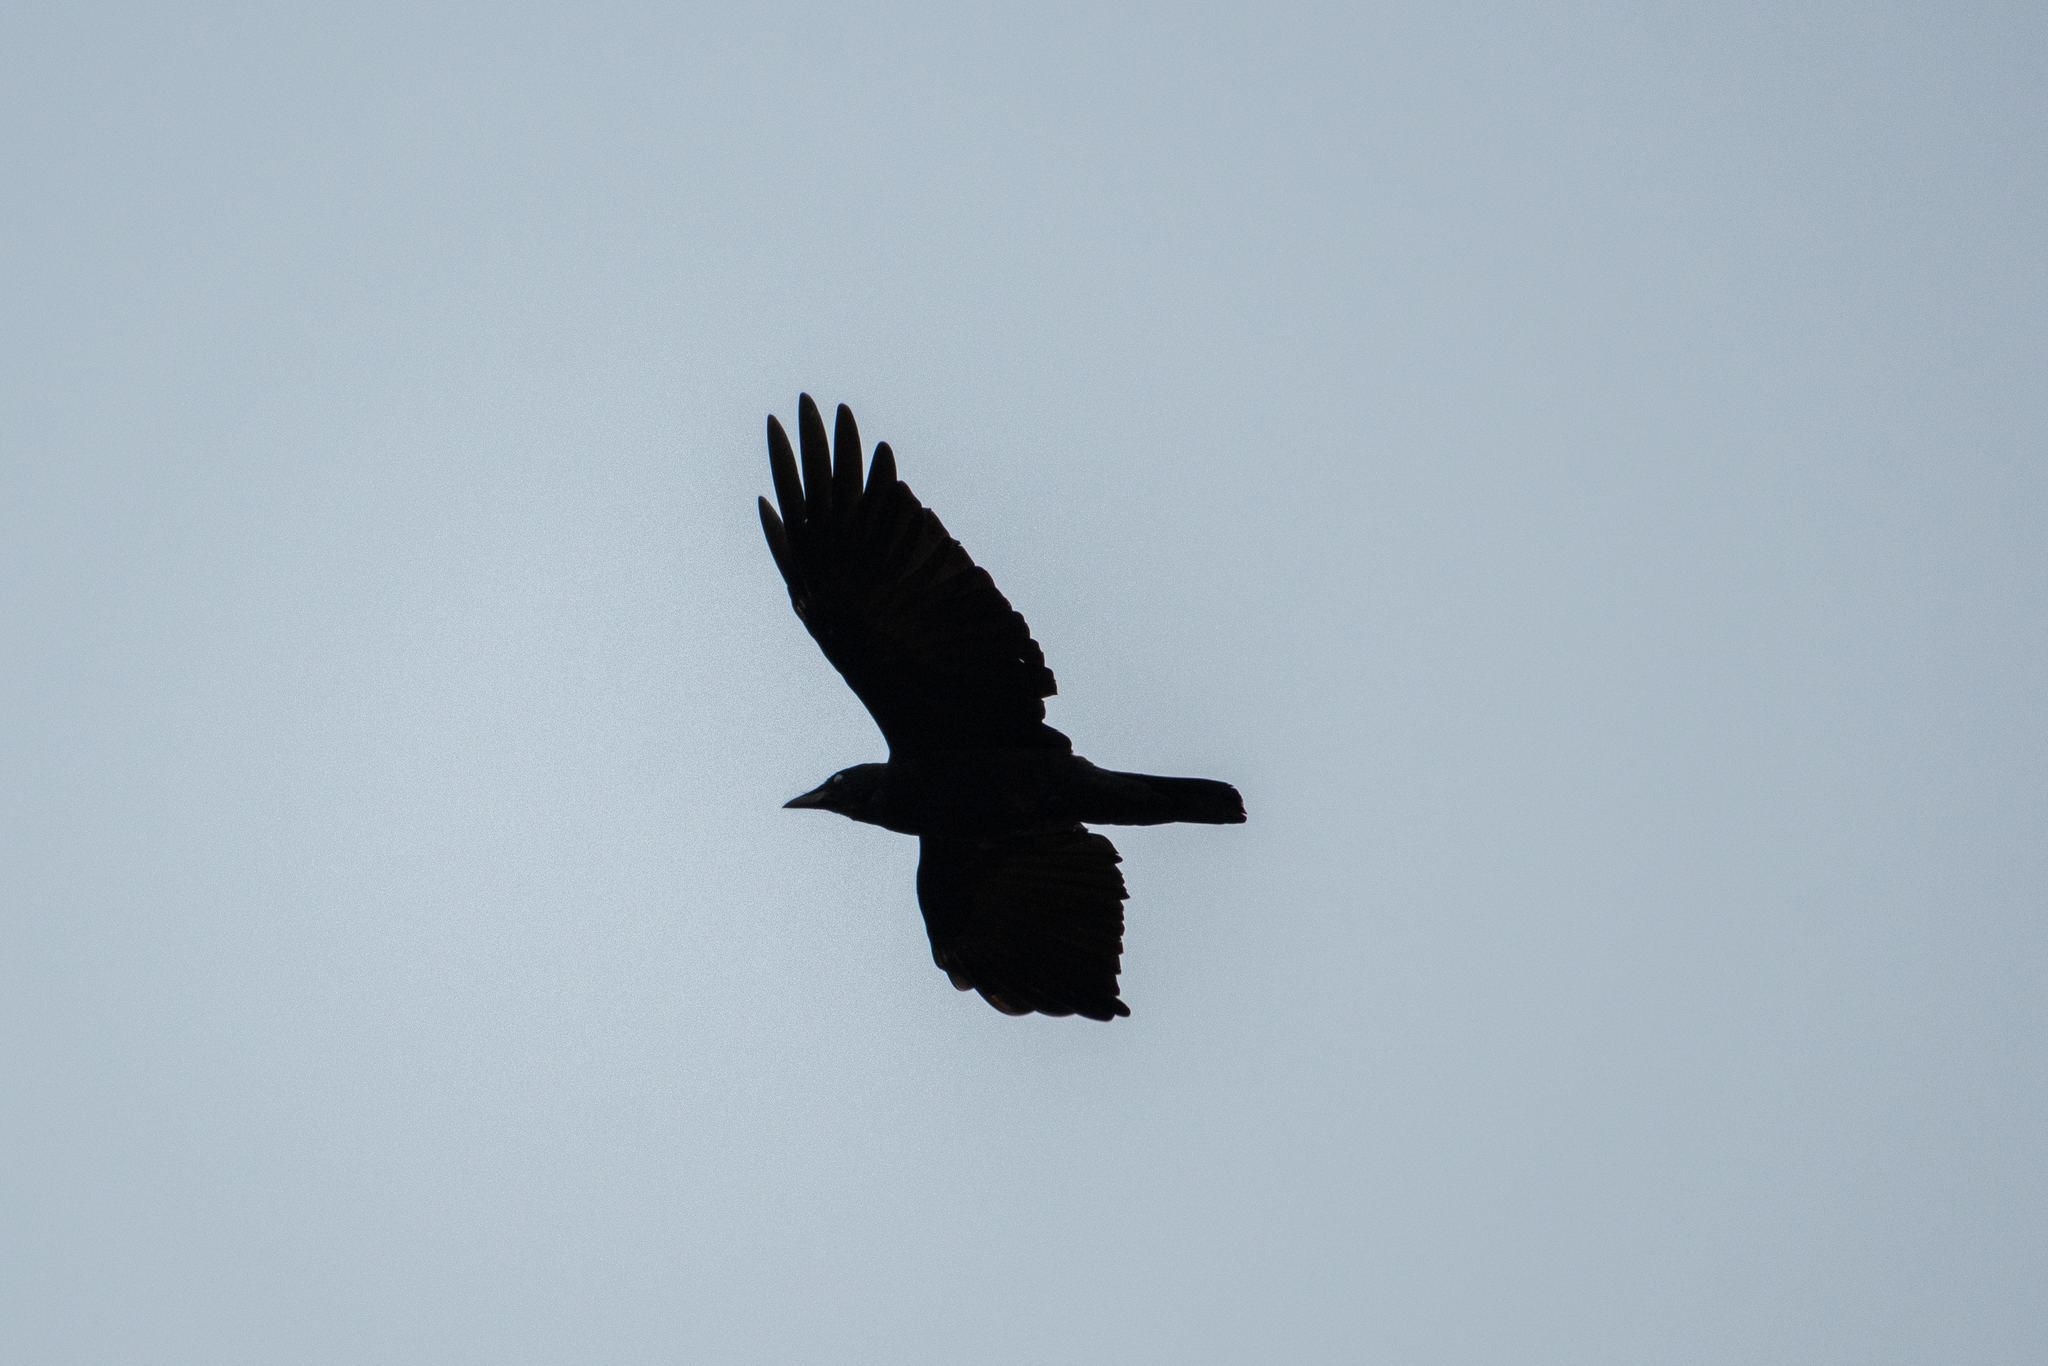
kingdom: Animalia
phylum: Chordata
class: Aves
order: Passeriformes
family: Corvidae
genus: Corvus
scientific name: Corvus brachyrhynchos
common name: American crow
